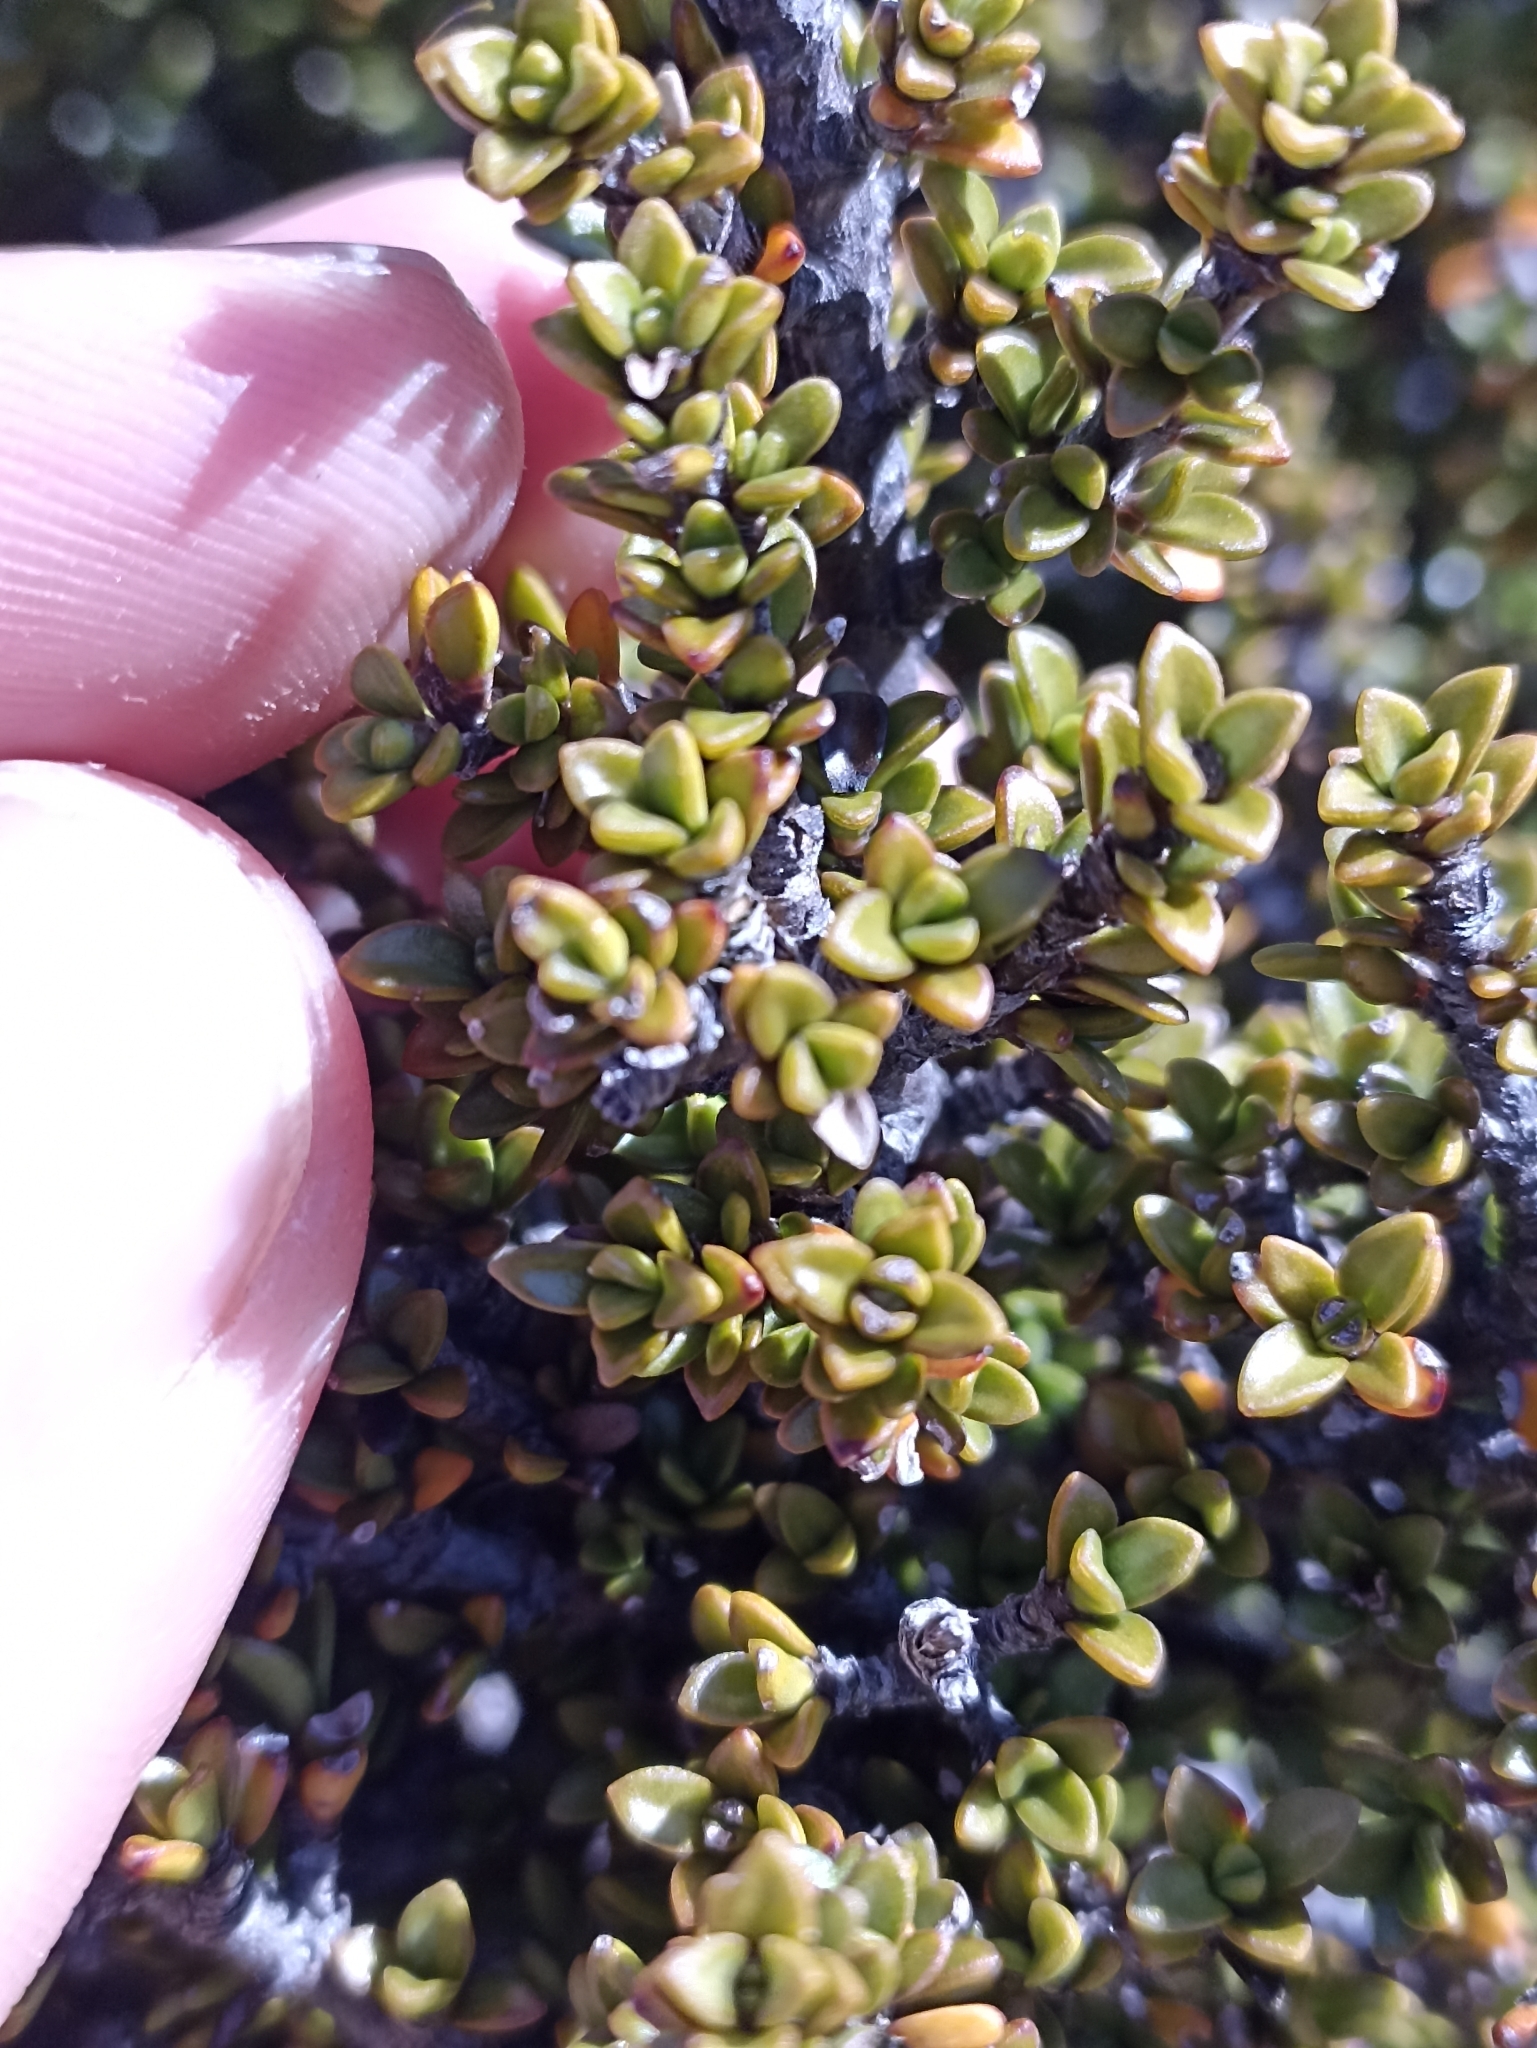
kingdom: Plantae
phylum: Tracheophyta
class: Magnoliopsida
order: Gentianales
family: Rubiaceae
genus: Coprosma
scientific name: Coprosma fowerakeri
